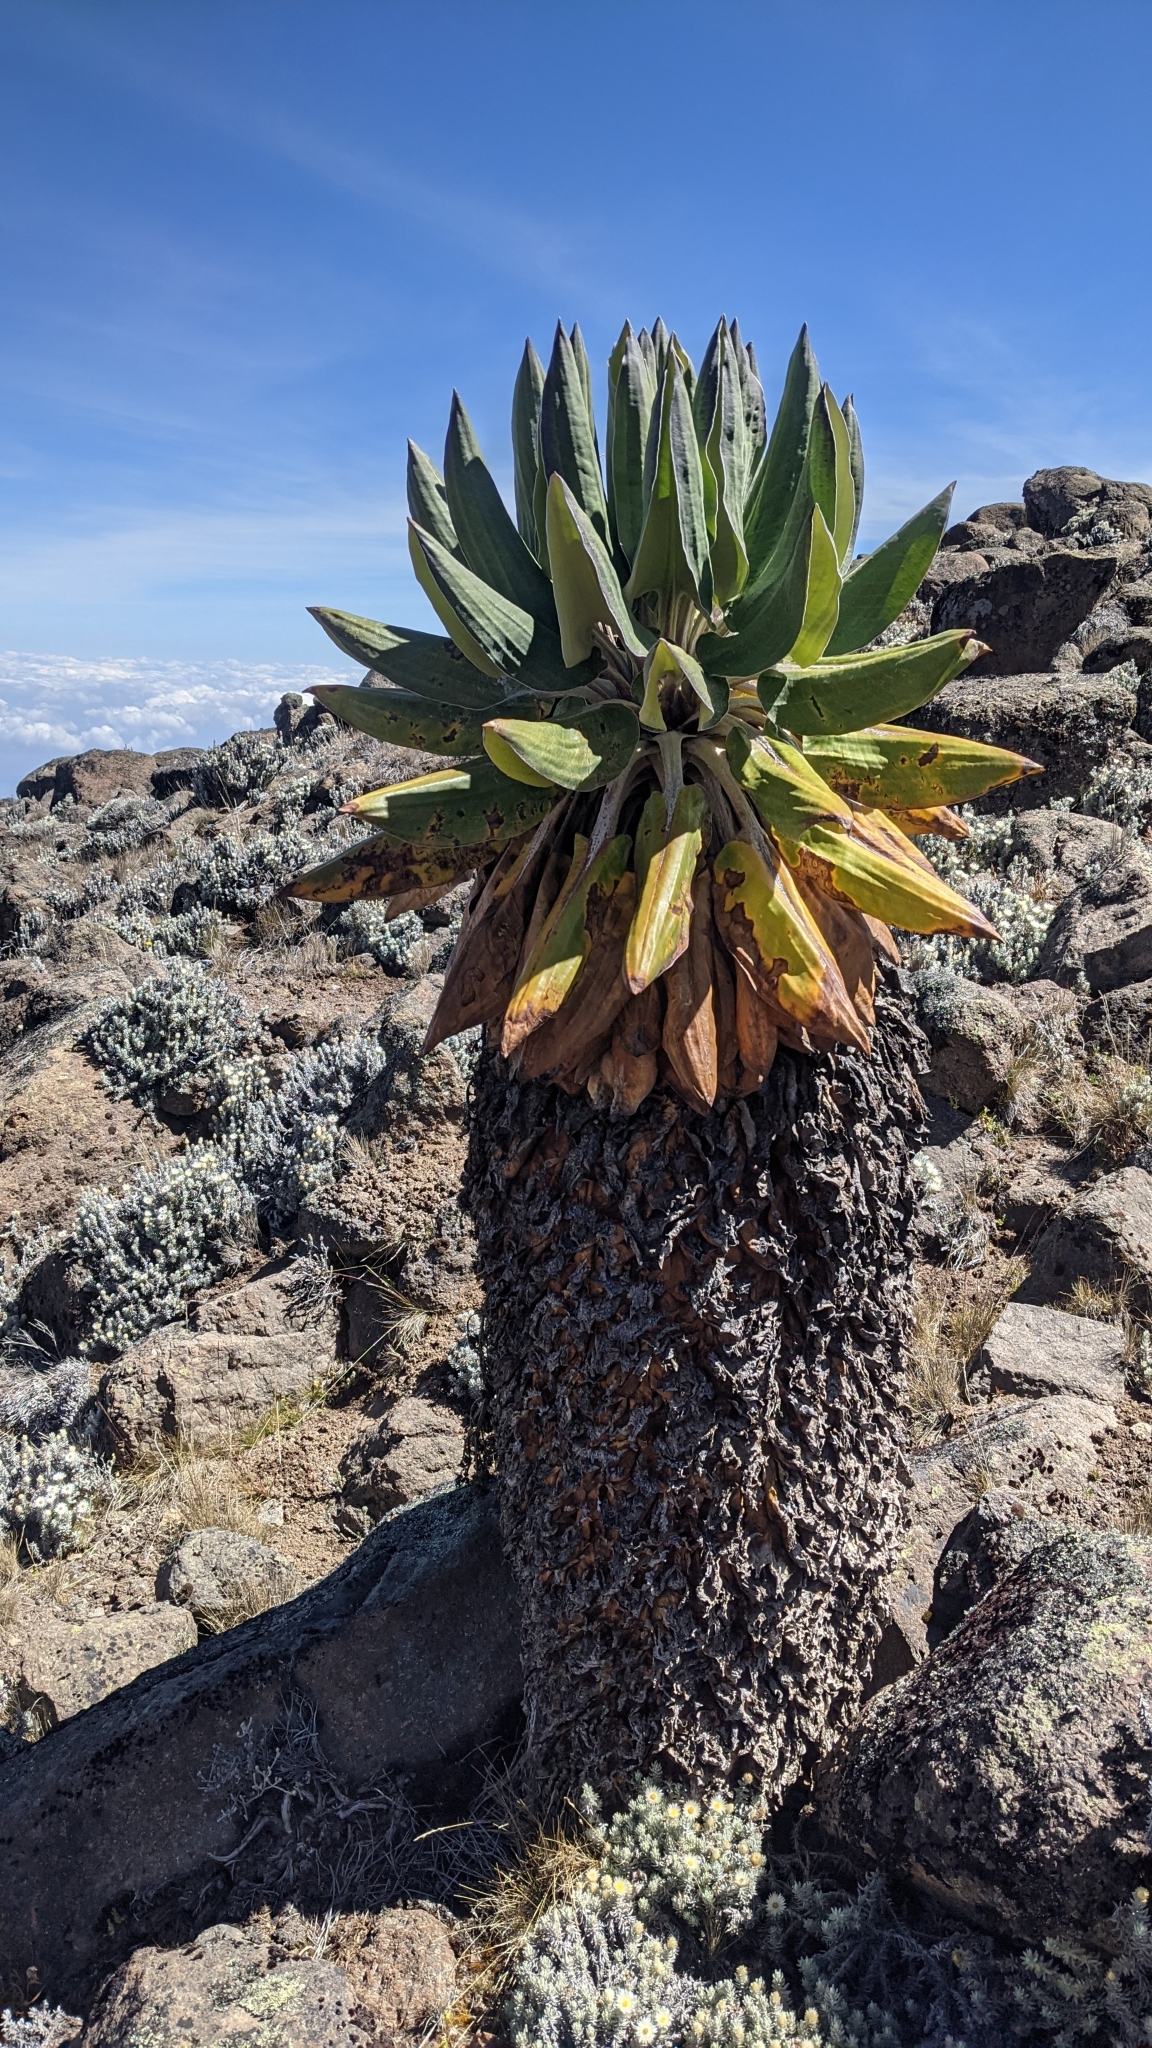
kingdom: Plantae
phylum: Tracheophyta
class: Magnoliopsida
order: Asterales
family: Asteraceae
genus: Dendrosenecio
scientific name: Dendrosenecio kilimanjari
